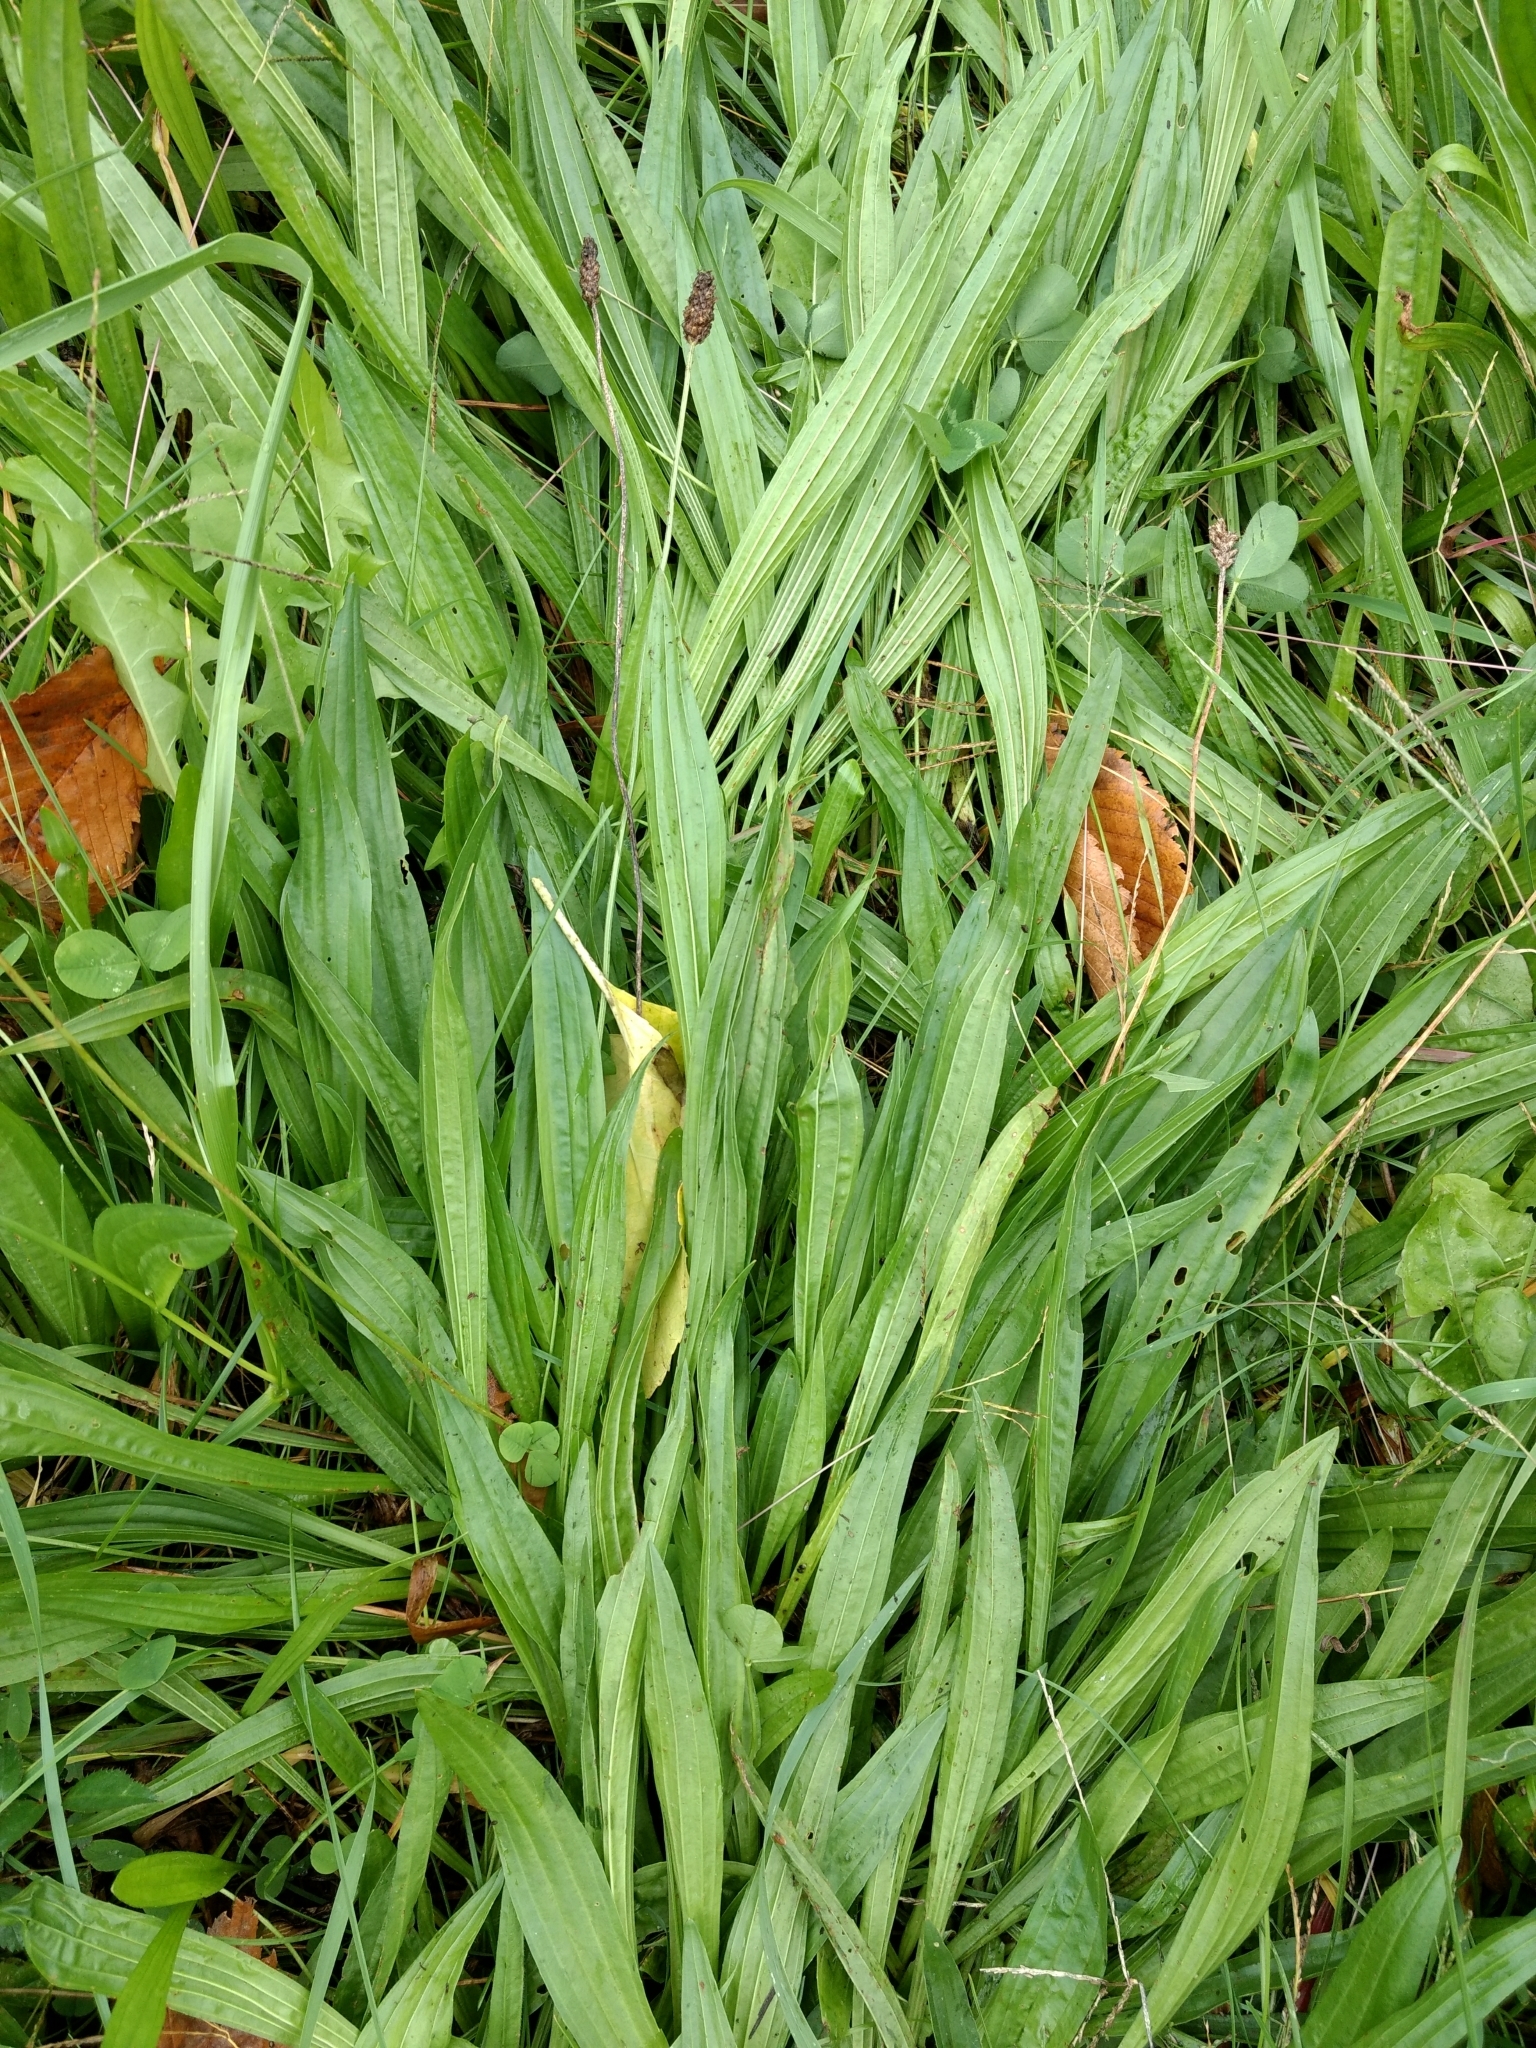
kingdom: Plantae
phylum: Tracheophyta
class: Magnoliopsida
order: Lamiales
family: Plantaginaceae
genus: Plantago
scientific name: Plantago lanceolata
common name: Ribwort plantain
